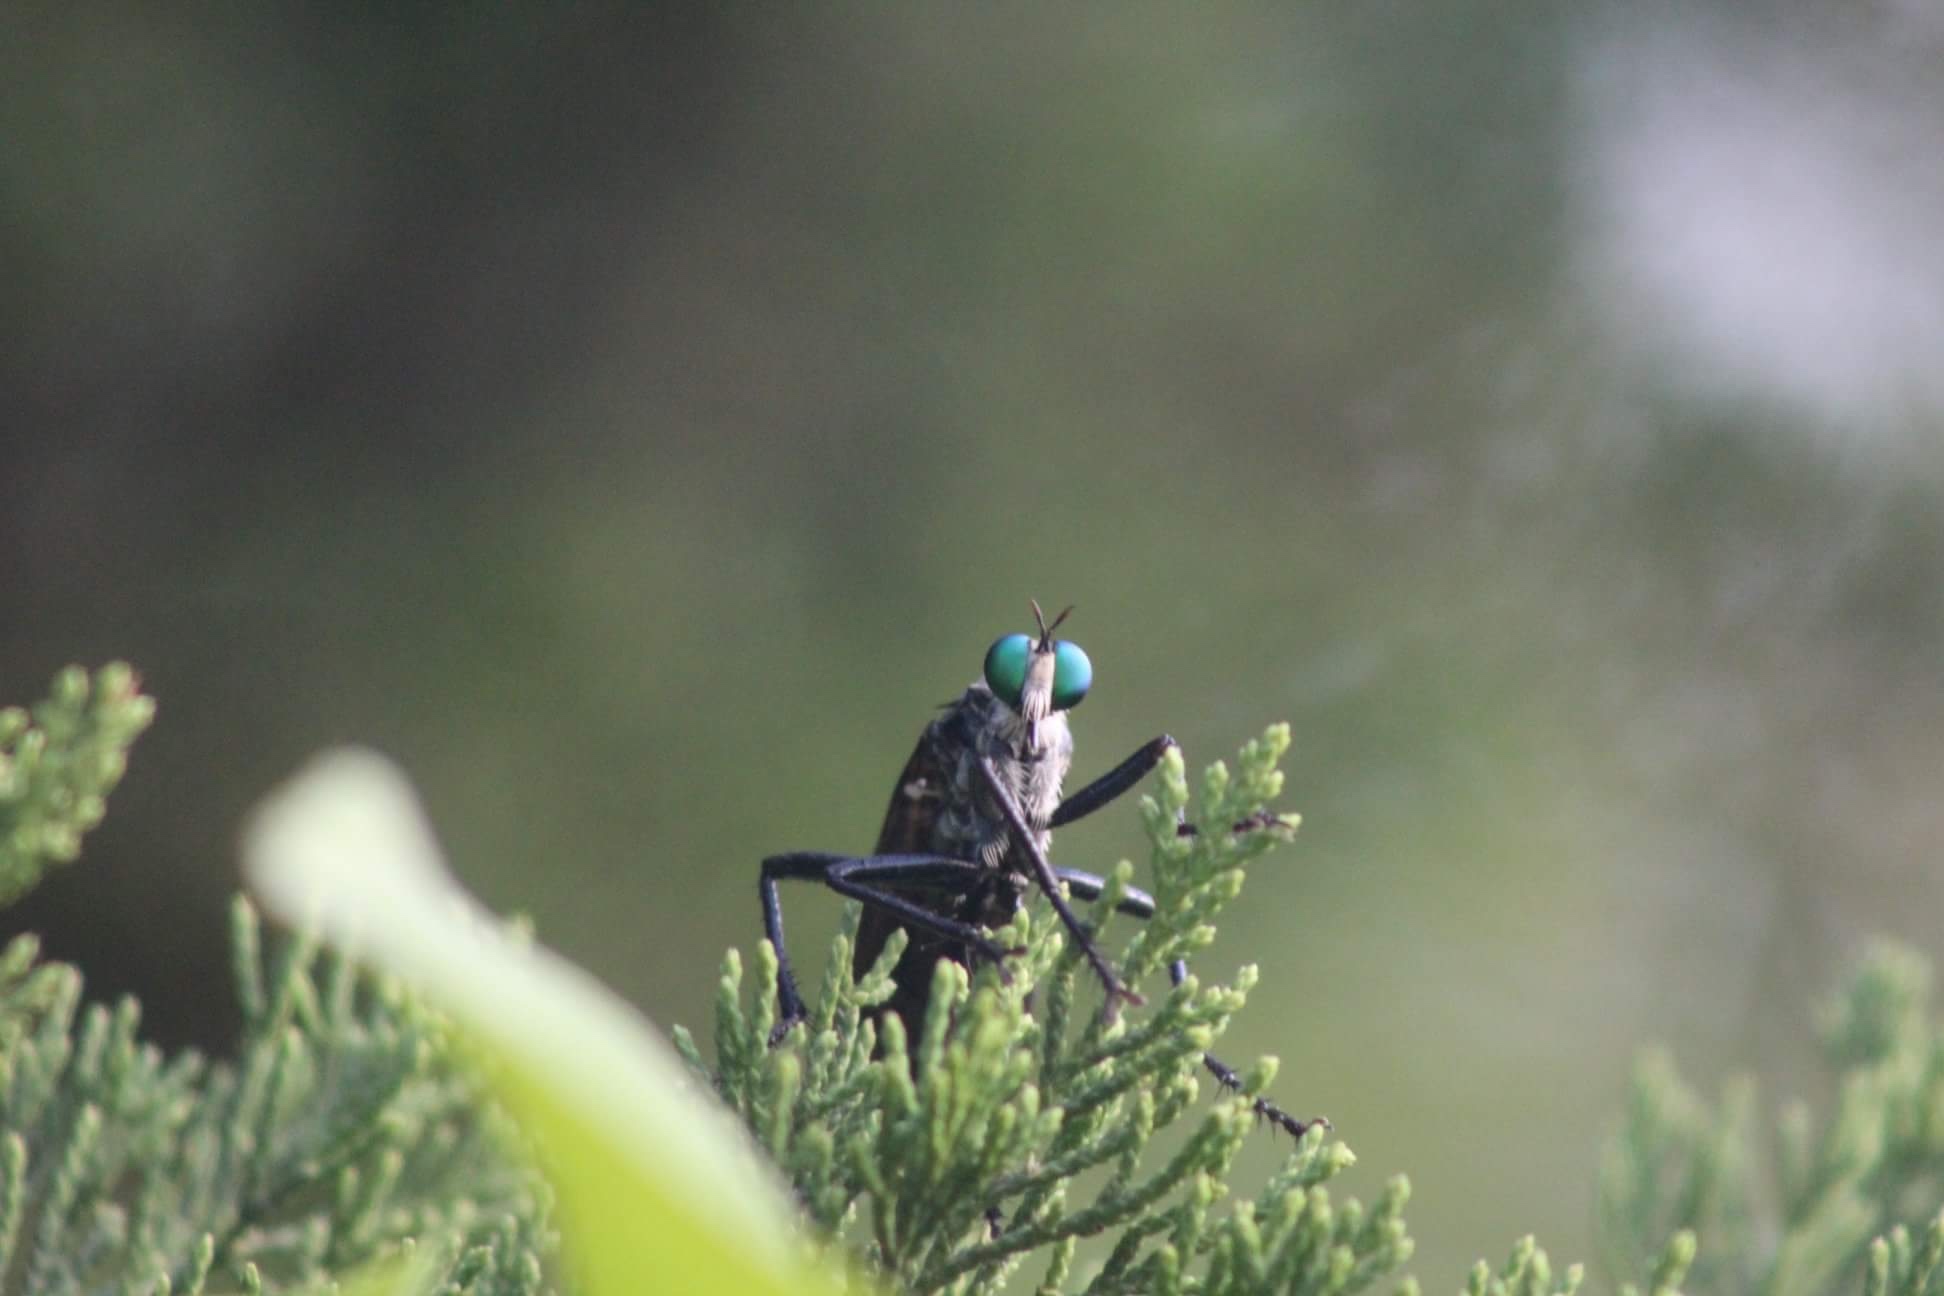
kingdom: Animalia
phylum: Arthropoda
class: Insecta
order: Diptera
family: Asilidae
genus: Microstylum
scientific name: Microstylum morosum
